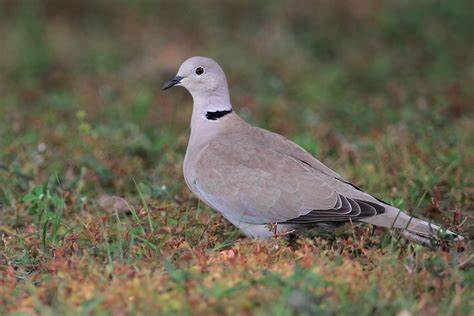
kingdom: Animalia
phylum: Chordata
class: Aves
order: Columbiformes
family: Columbidae
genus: Streptopelia
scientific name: Streptopelia decaocto
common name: Eurasian collared dove
